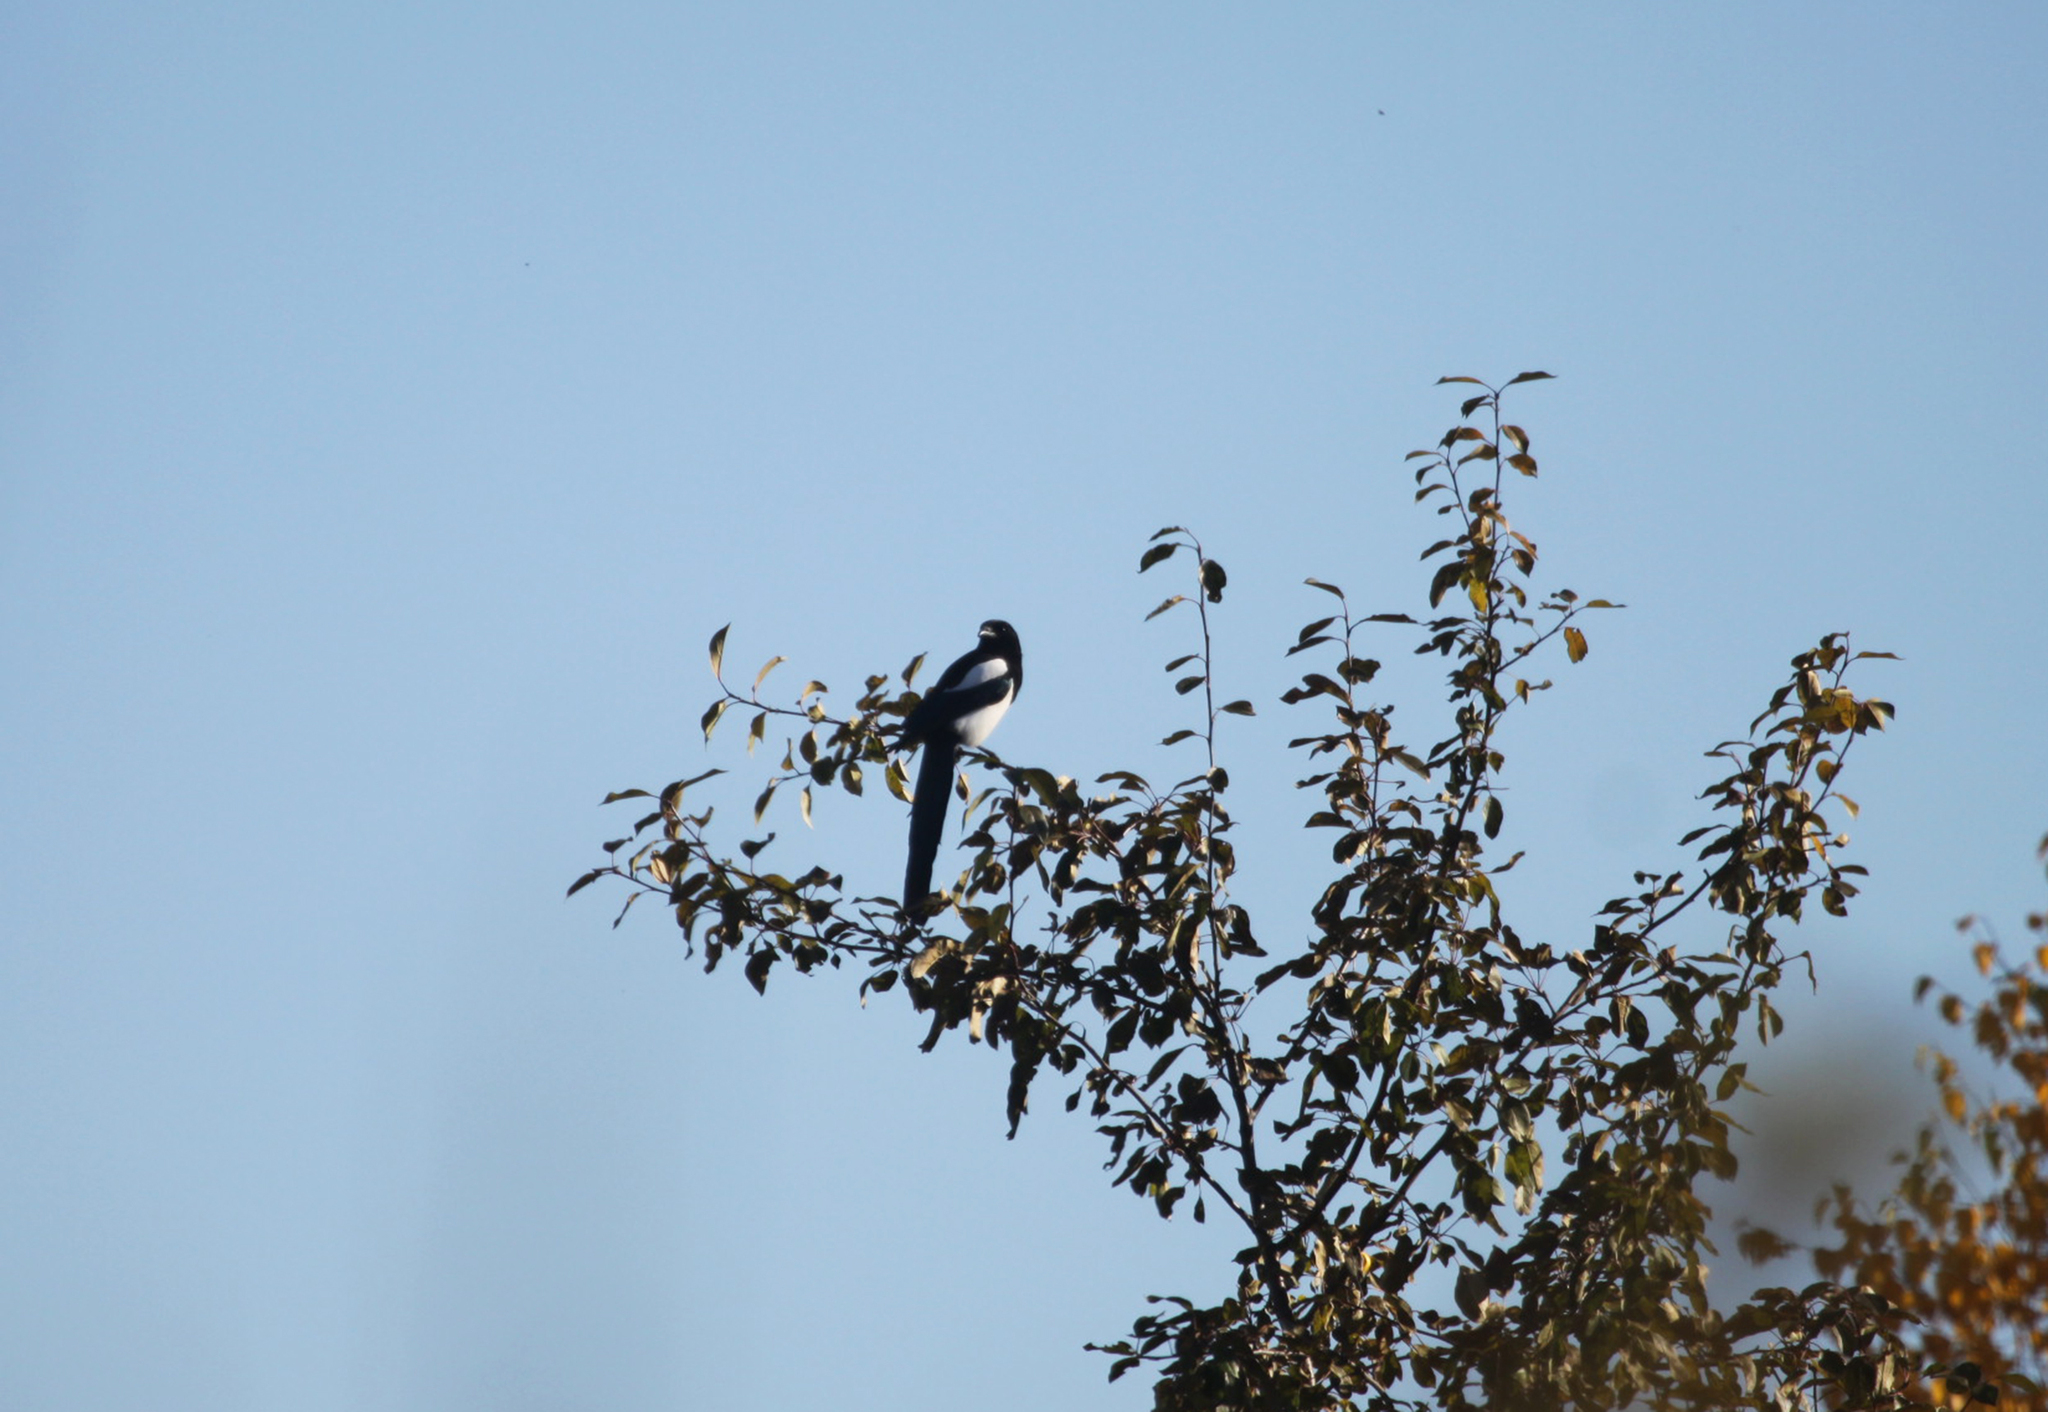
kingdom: Animalia
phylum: Chordata
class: Aves
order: Passeriformes
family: Corvidae
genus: Pica
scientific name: Pica pica
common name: Eurasian magpie
